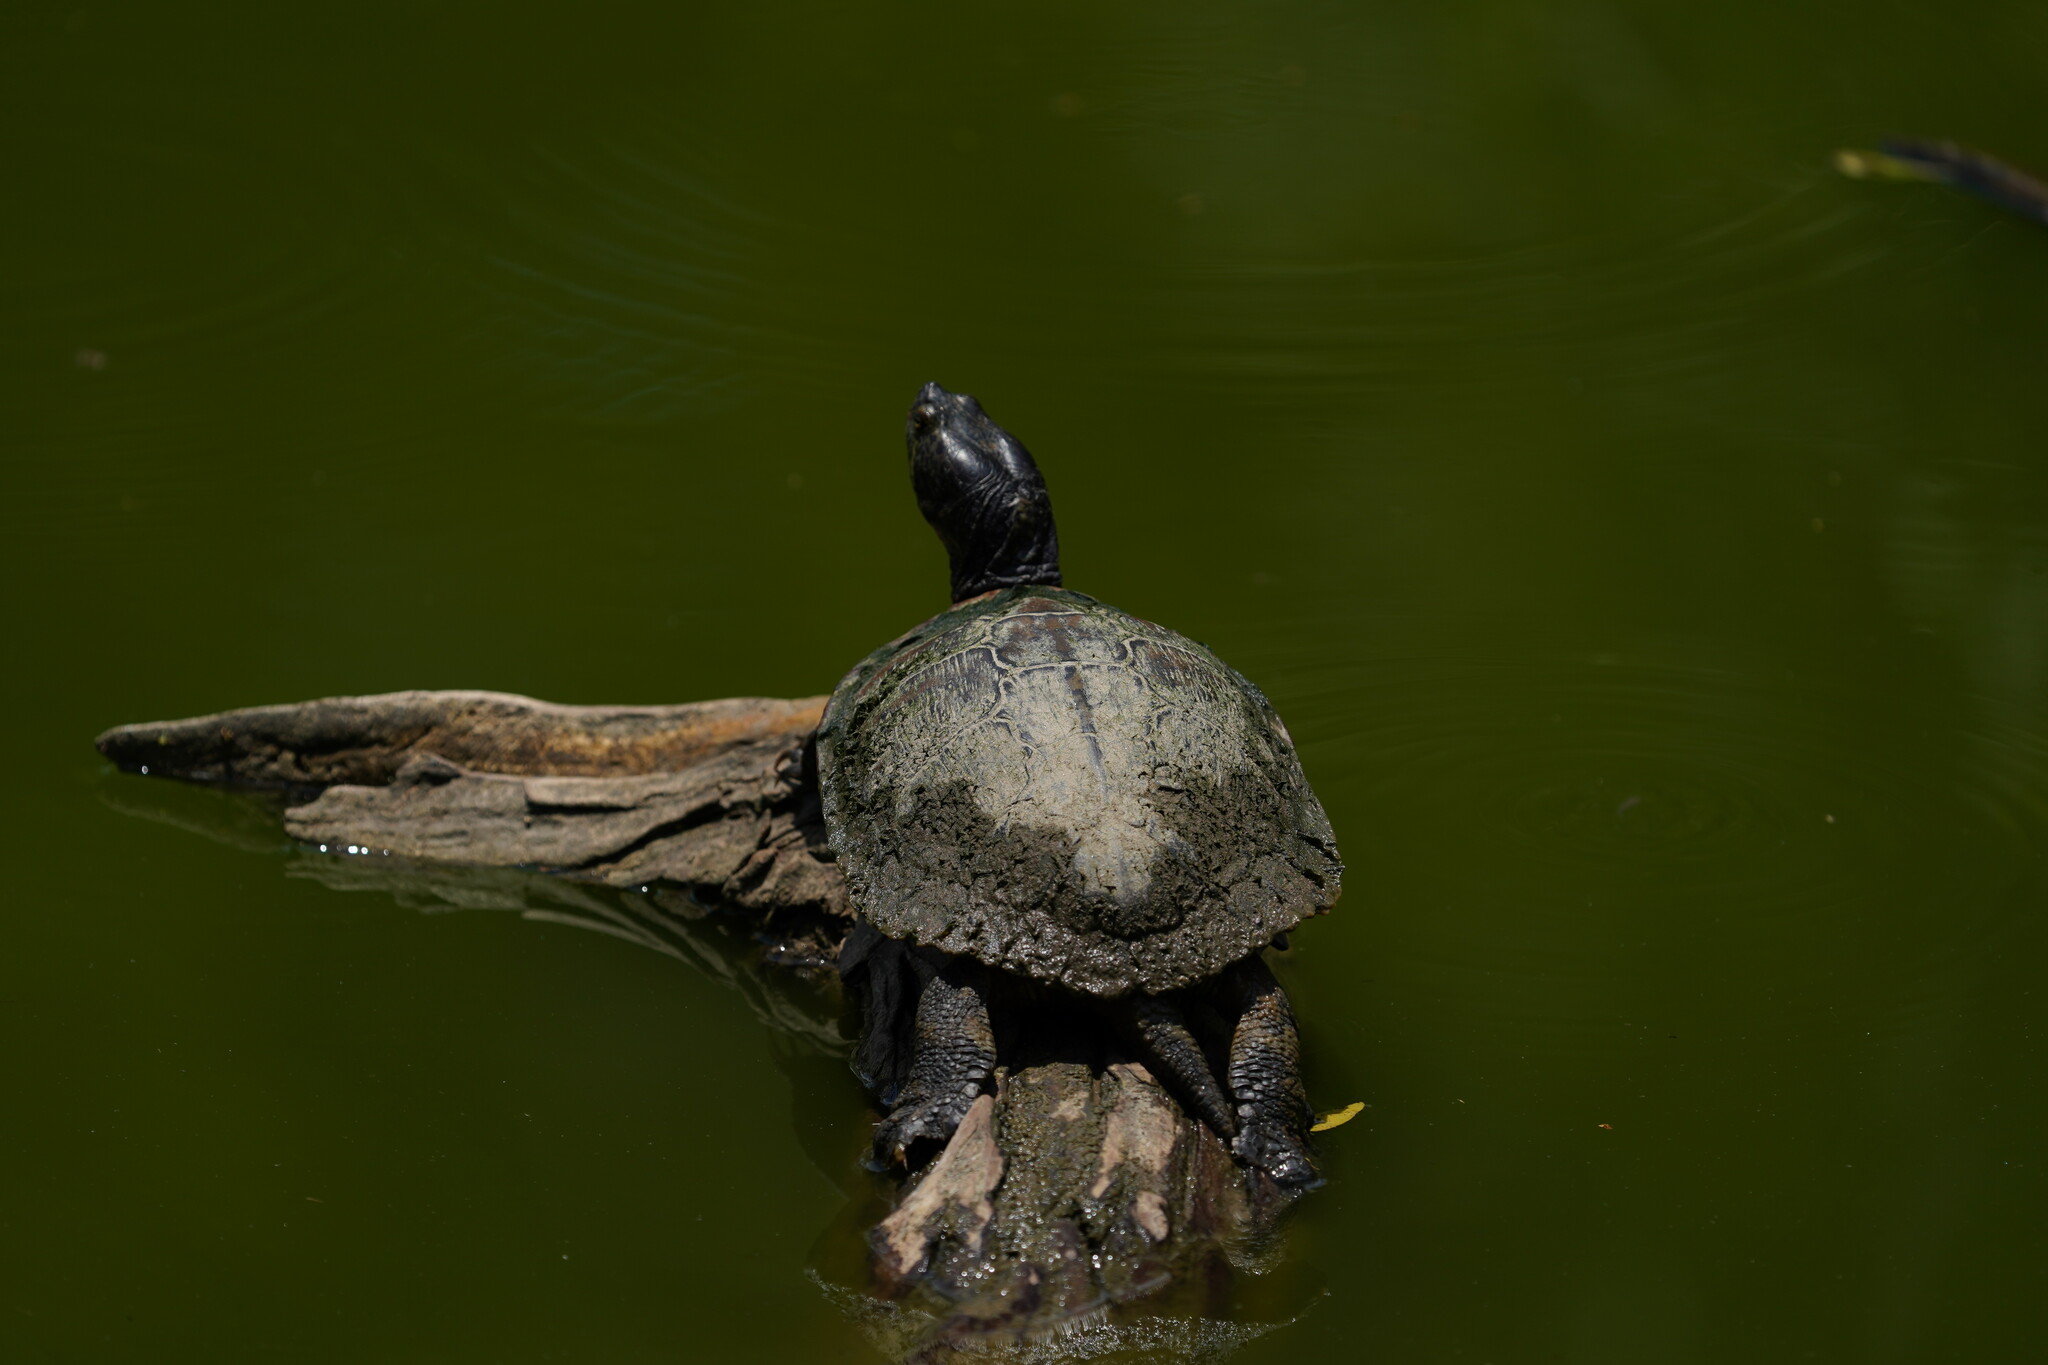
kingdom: Animalia
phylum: Chordata
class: Testudines
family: Emydidae
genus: Trachemys
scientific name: Trachemys scripta
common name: Slider
